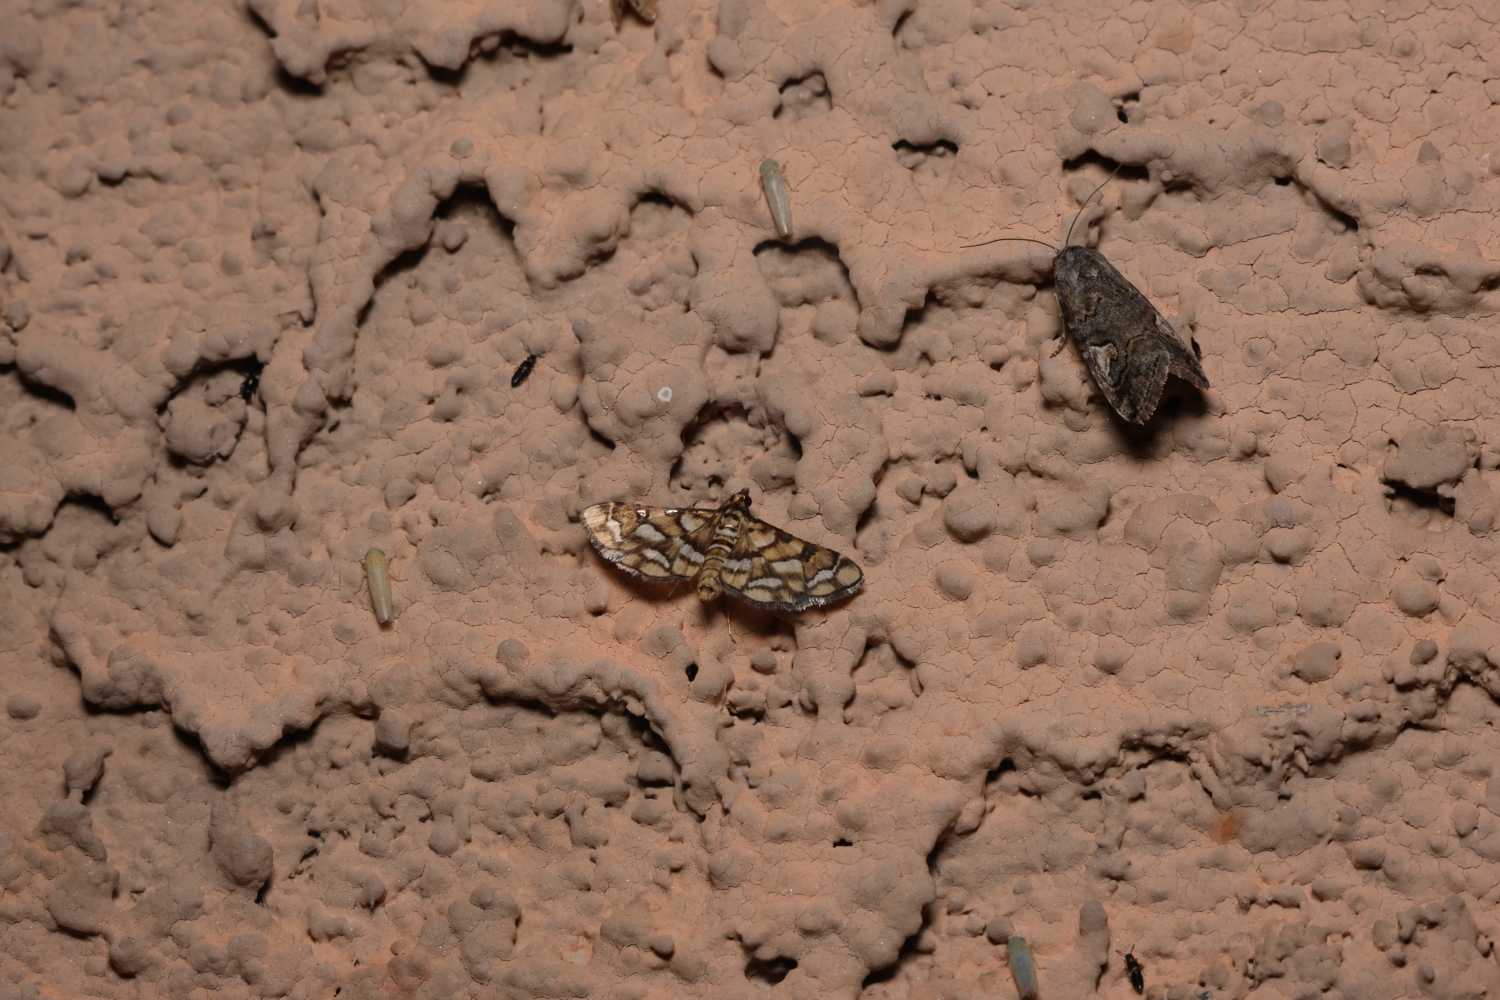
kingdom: Animalia
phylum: Arthropoda
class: Insecta
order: Lepidoptera
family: Crambidae
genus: Hileithia
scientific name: Hileithia magualis
